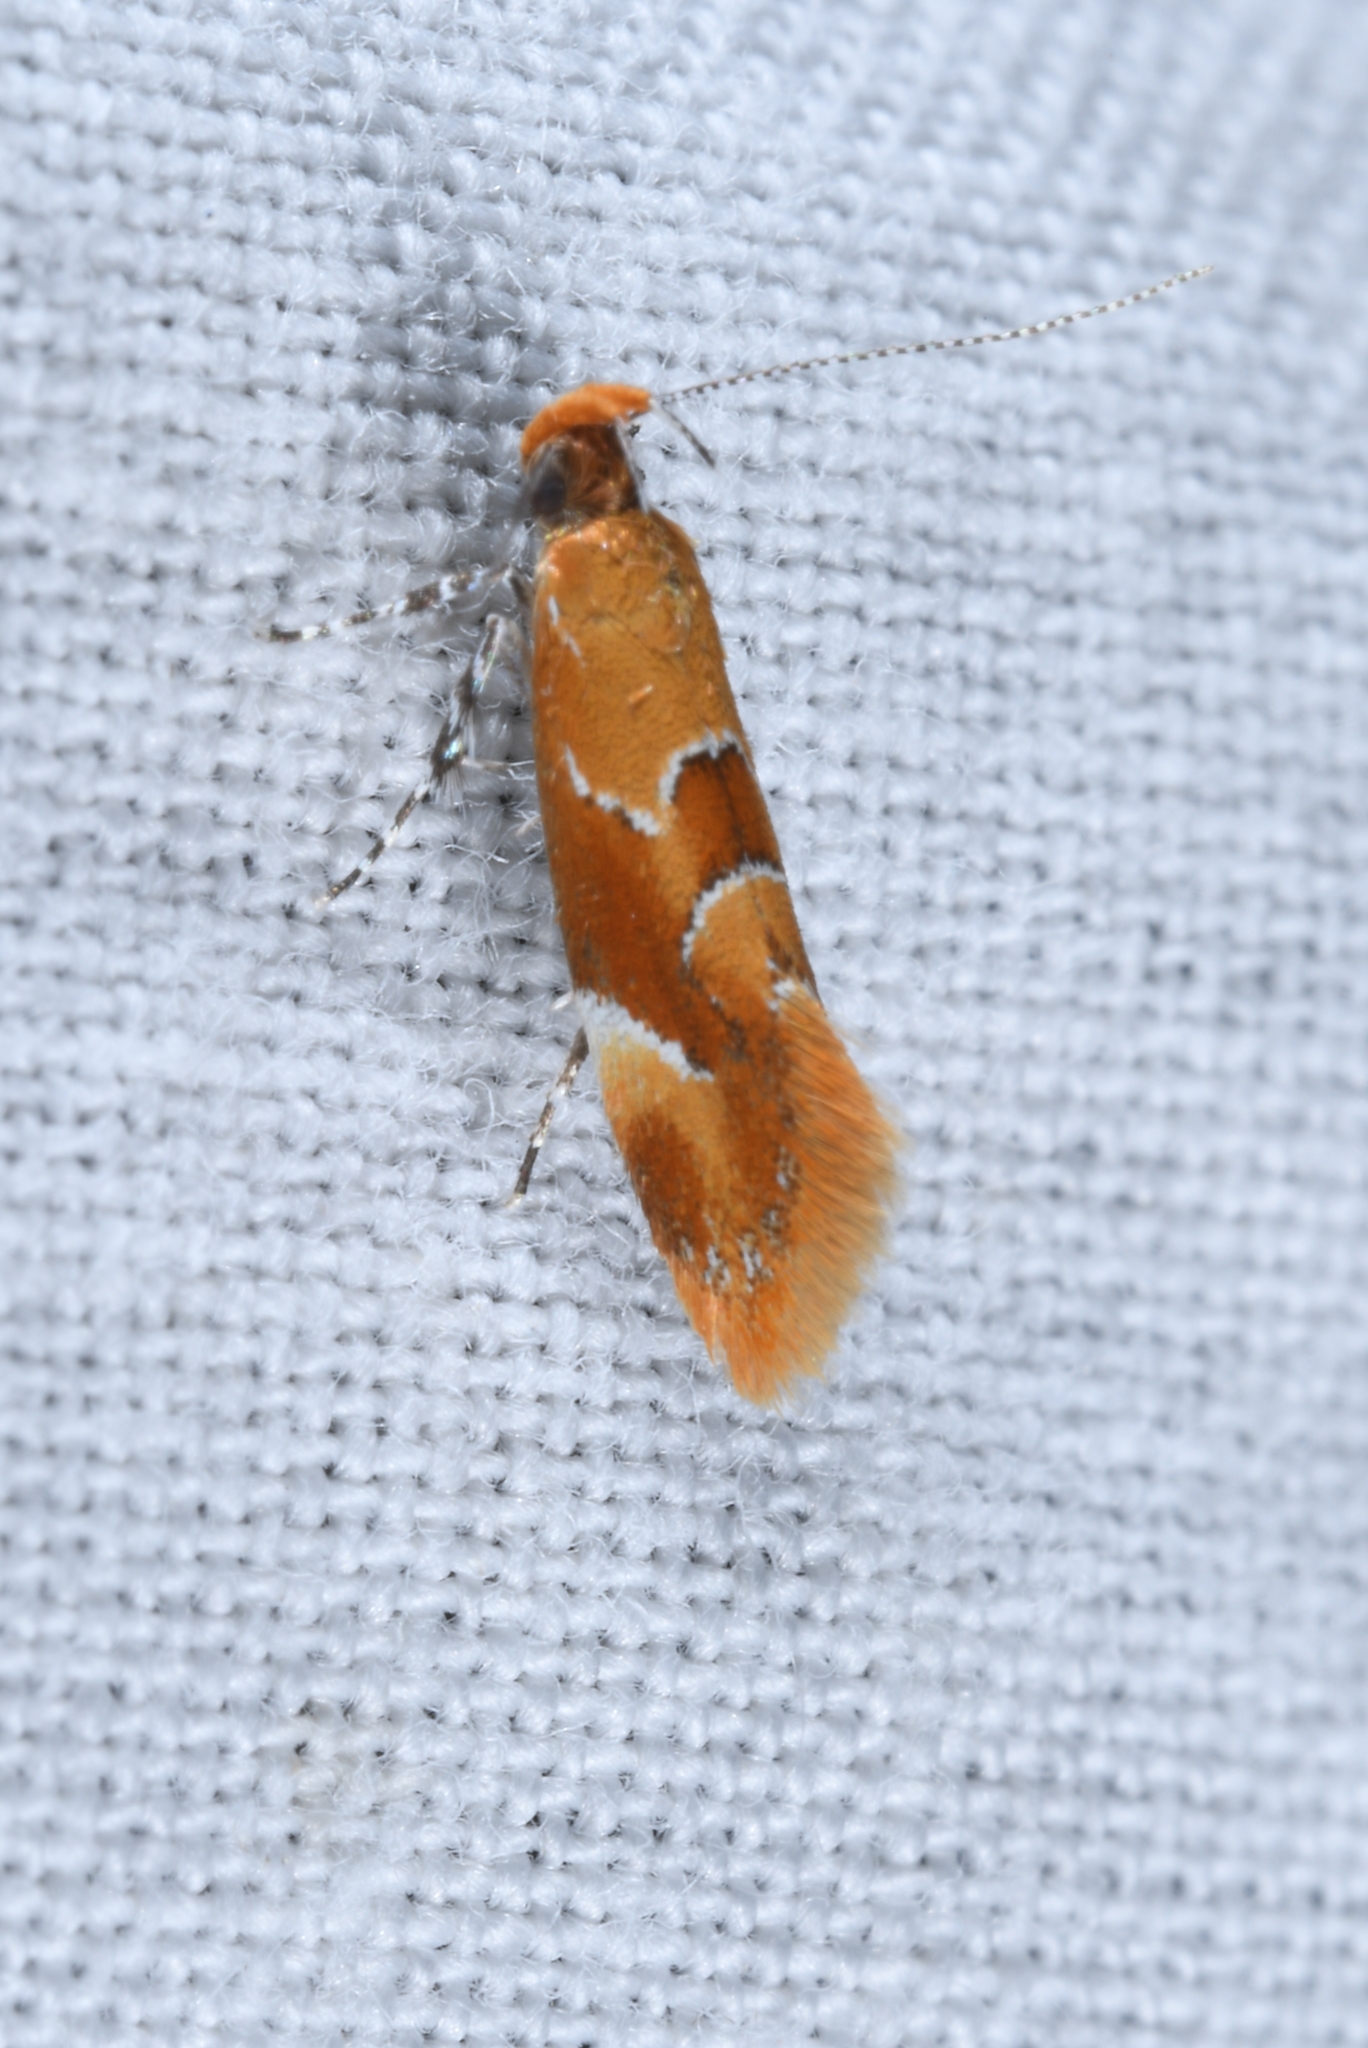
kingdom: Animalia
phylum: Arthropoda
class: Insecta
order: Lepidoptera
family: Oecophoridae
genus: Callima
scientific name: Callima formosella
